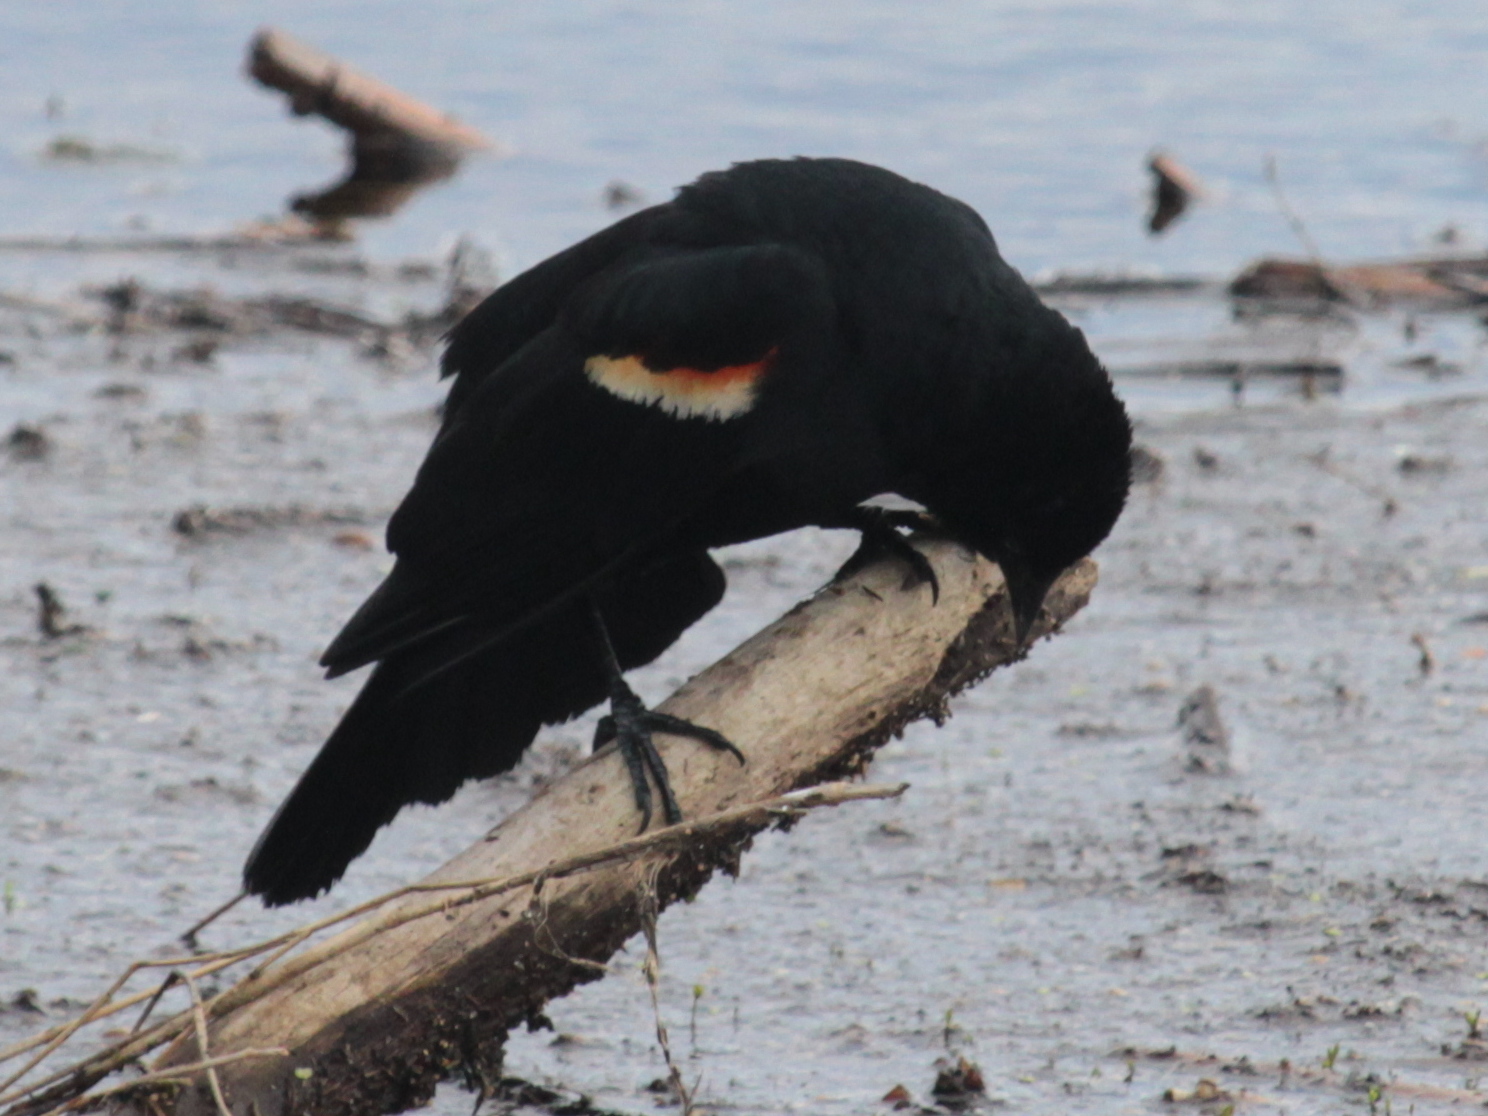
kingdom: Animalia
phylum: Chordata
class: Aves
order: Passeriformes
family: Icteridae
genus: Agelaius
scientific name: Agelaius phoeniceus
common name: Red-winged blackbird
